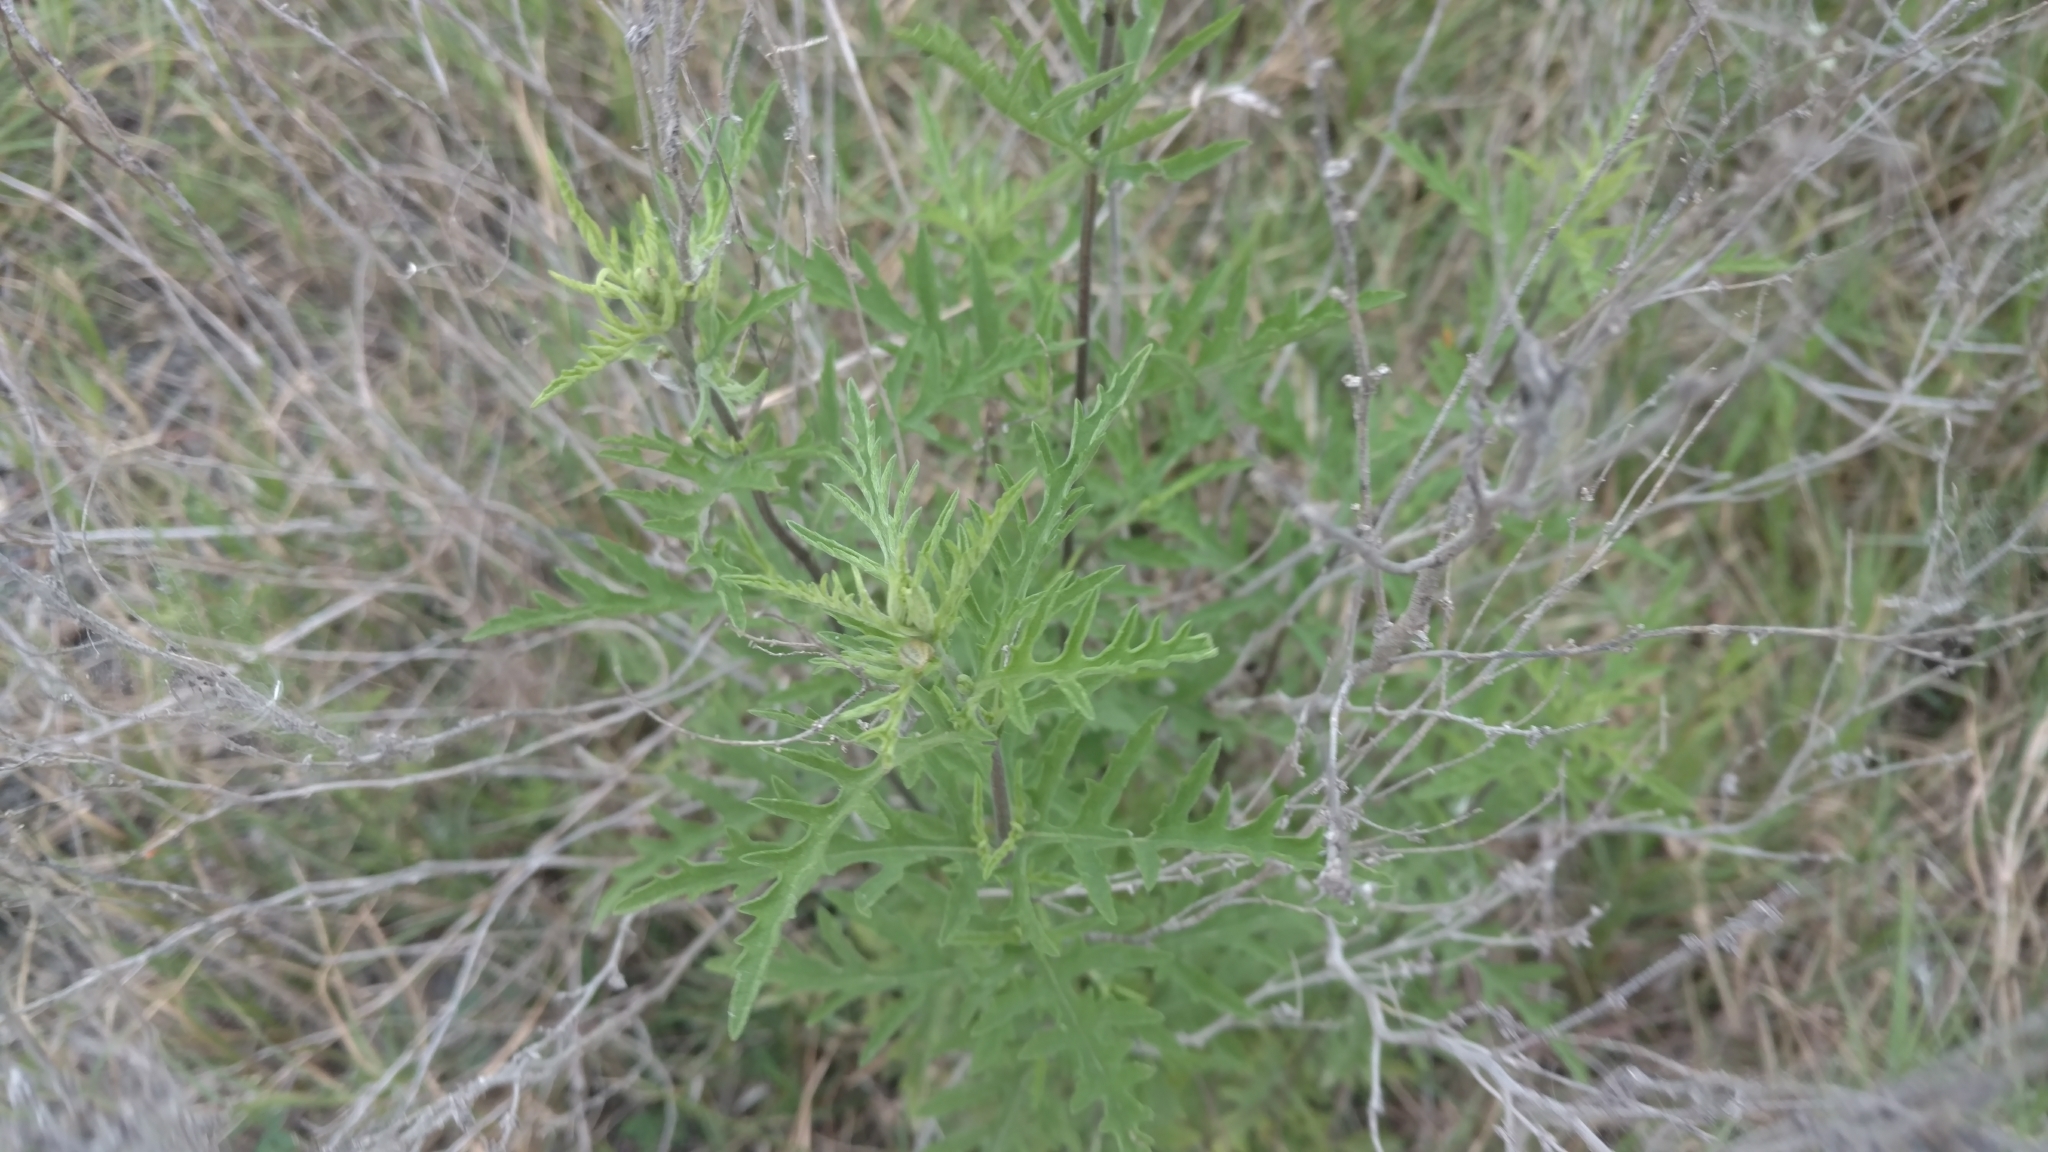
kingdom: Plantae
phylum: Tracheophyta
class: Magnoliopsida
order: Asterales
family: Asteraceae
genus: Ambrosia
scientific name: Ambrosia psilostachya
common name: Perennial ragweed
